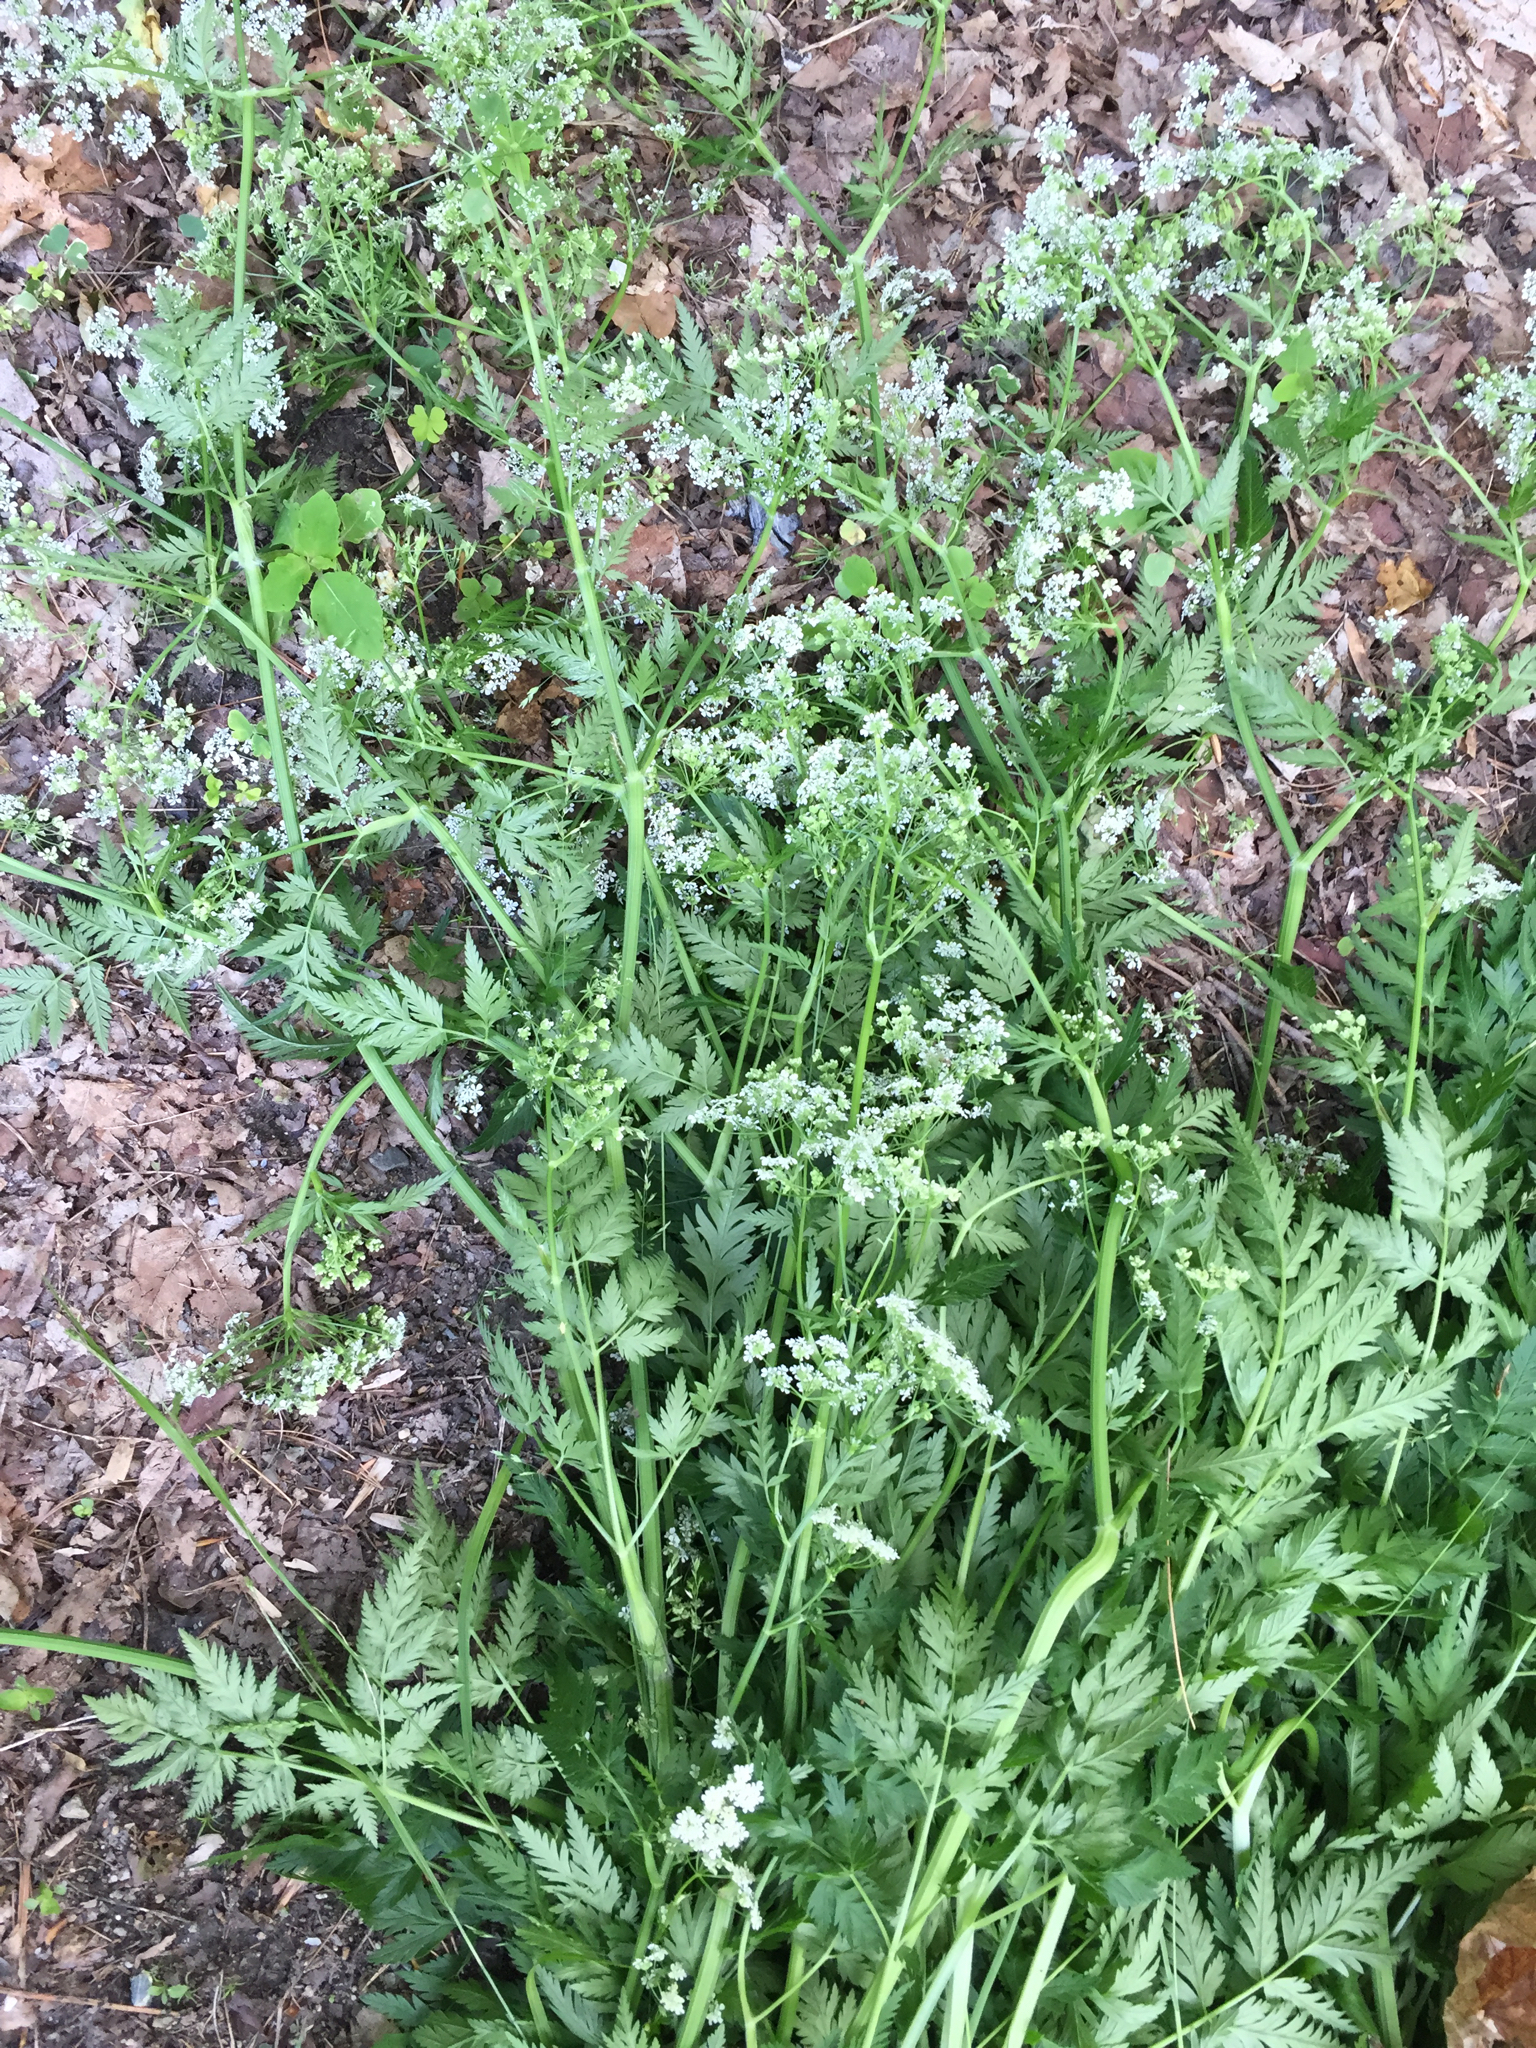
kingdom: Plantae
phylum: Tracheophyta
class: Magnoliopsida
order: Apiales
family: Apiaceae
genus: Anthriscus
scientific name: Anthriscus sylvestris
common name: Cow parsley
